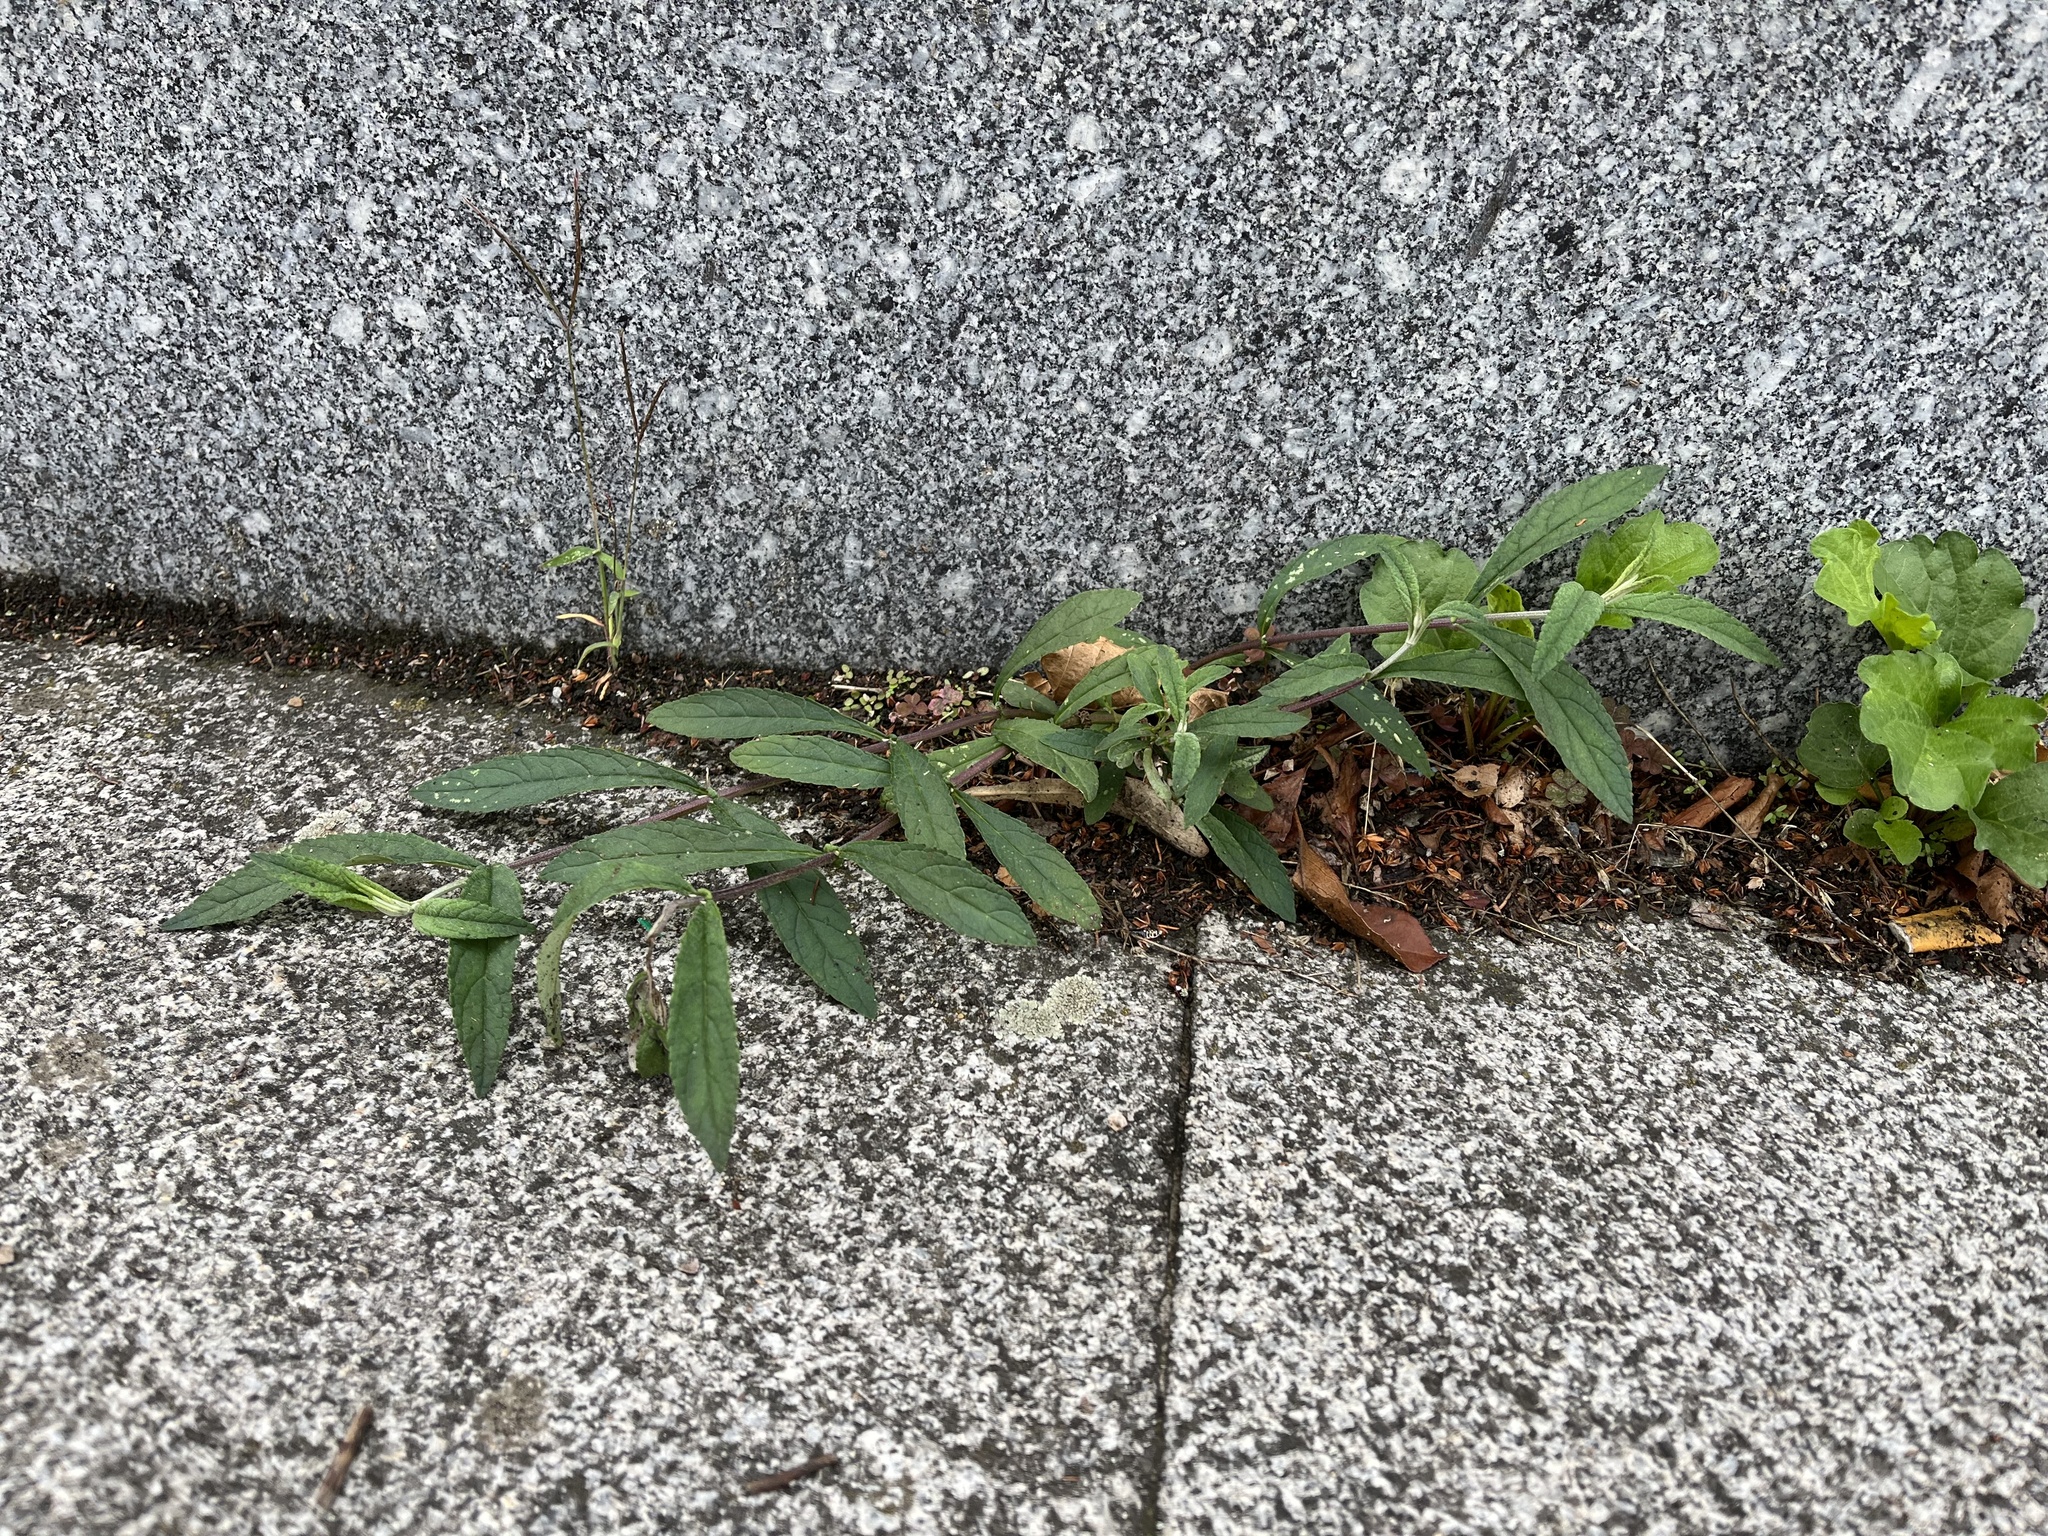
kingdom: Plantae
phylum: Tracheophyta
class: Magnoliopsida
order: Lamiales
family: Scrophulariaceae
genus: Buddleja
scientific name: Buddleja davidii
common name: Butterfly-bush
